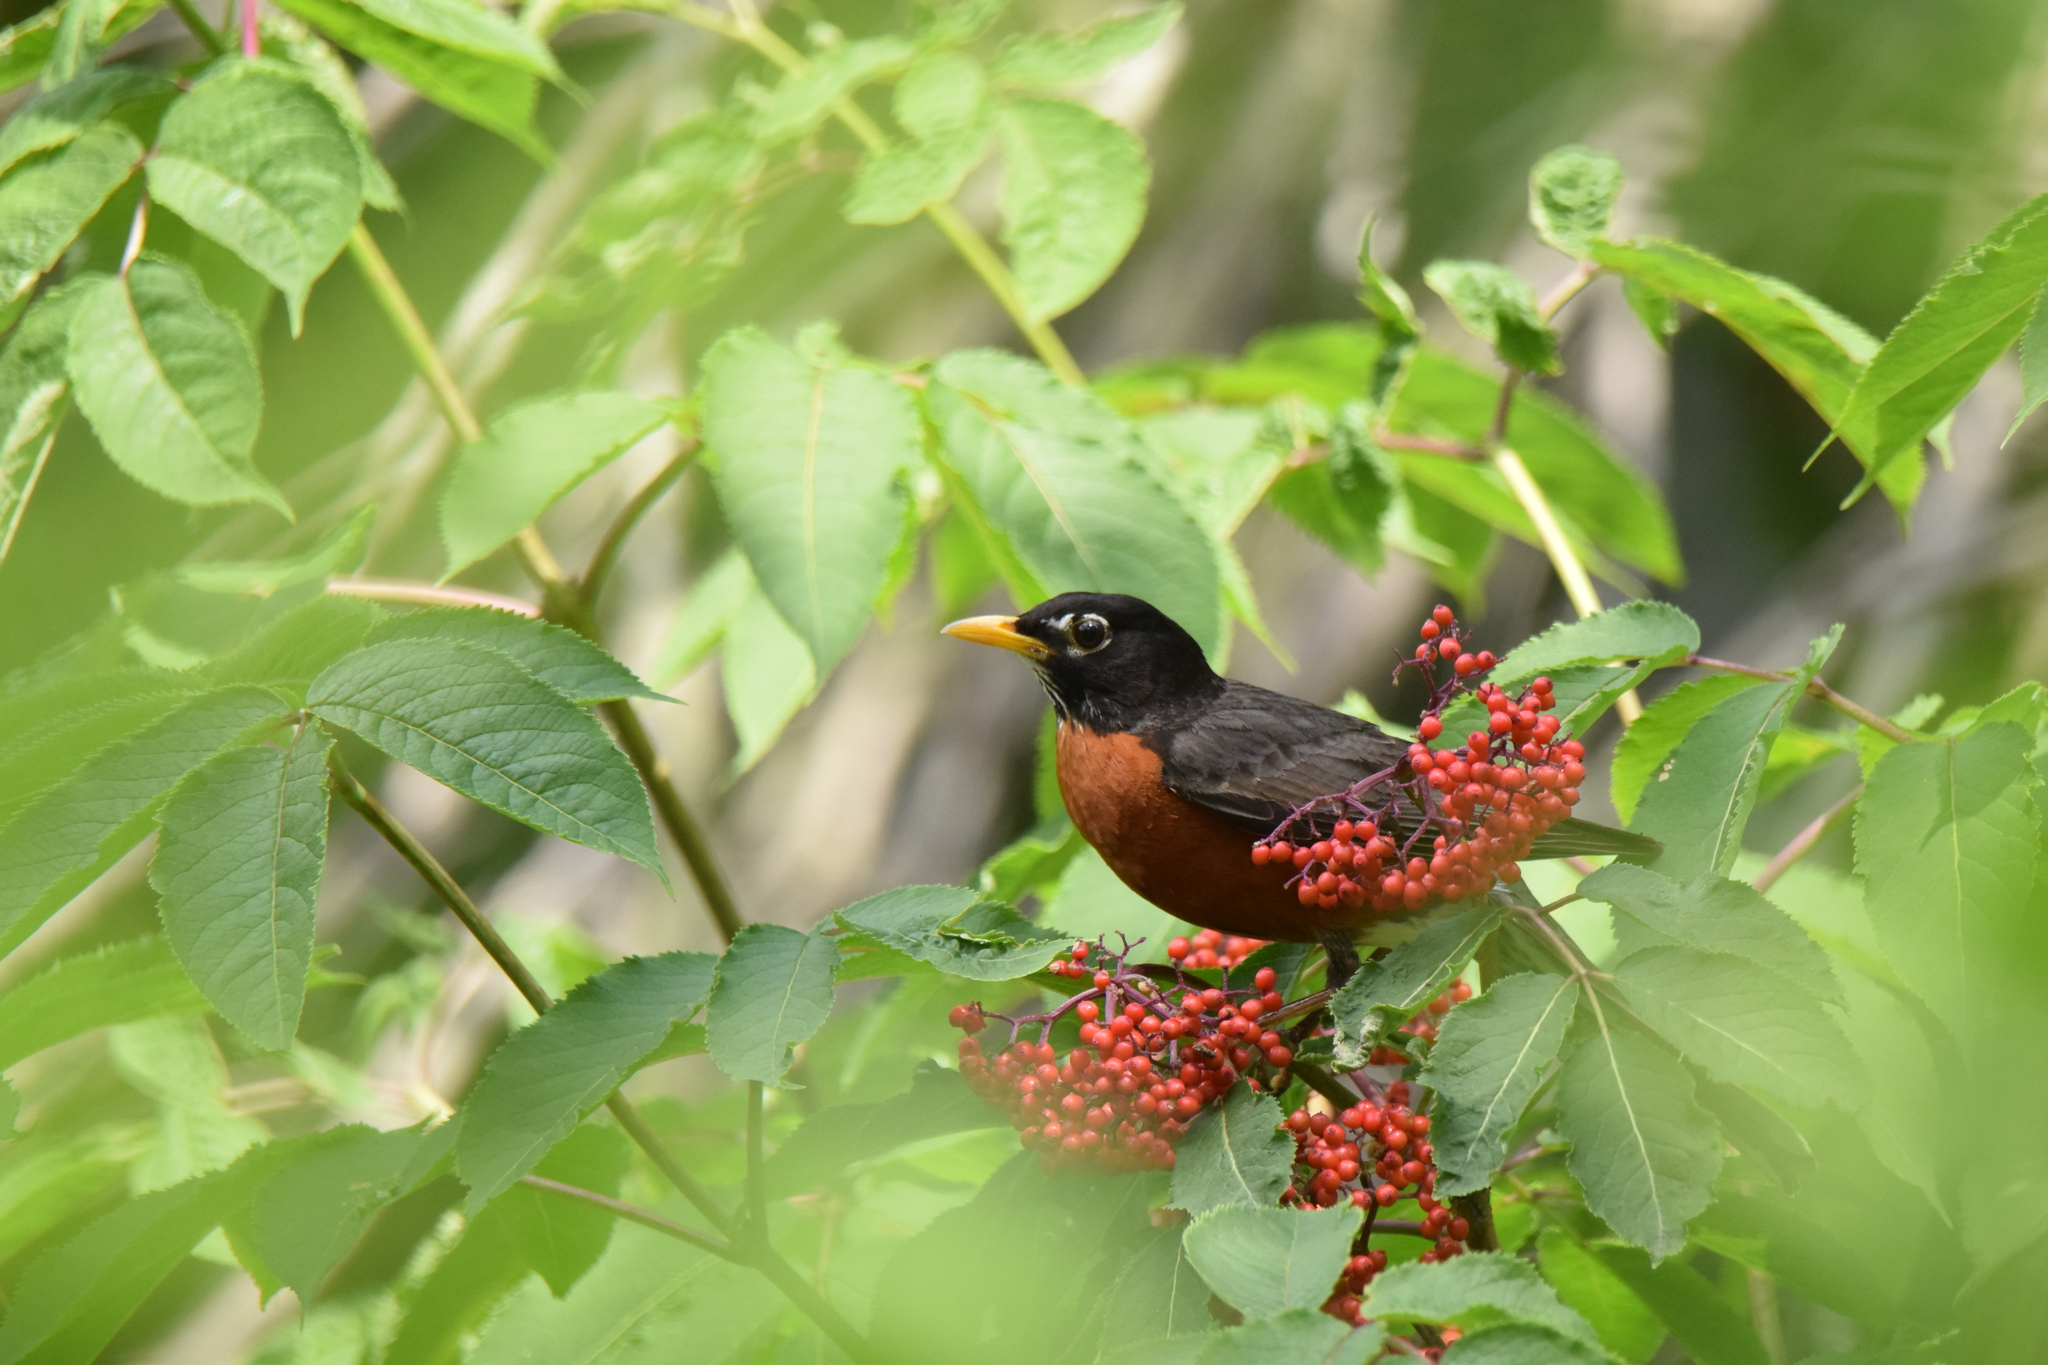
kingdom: Animalia
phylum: Chordata
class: Aves
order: Passeriformes
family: Turdidae
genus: Turdus
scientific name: Turdus migratorius
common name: American robin
